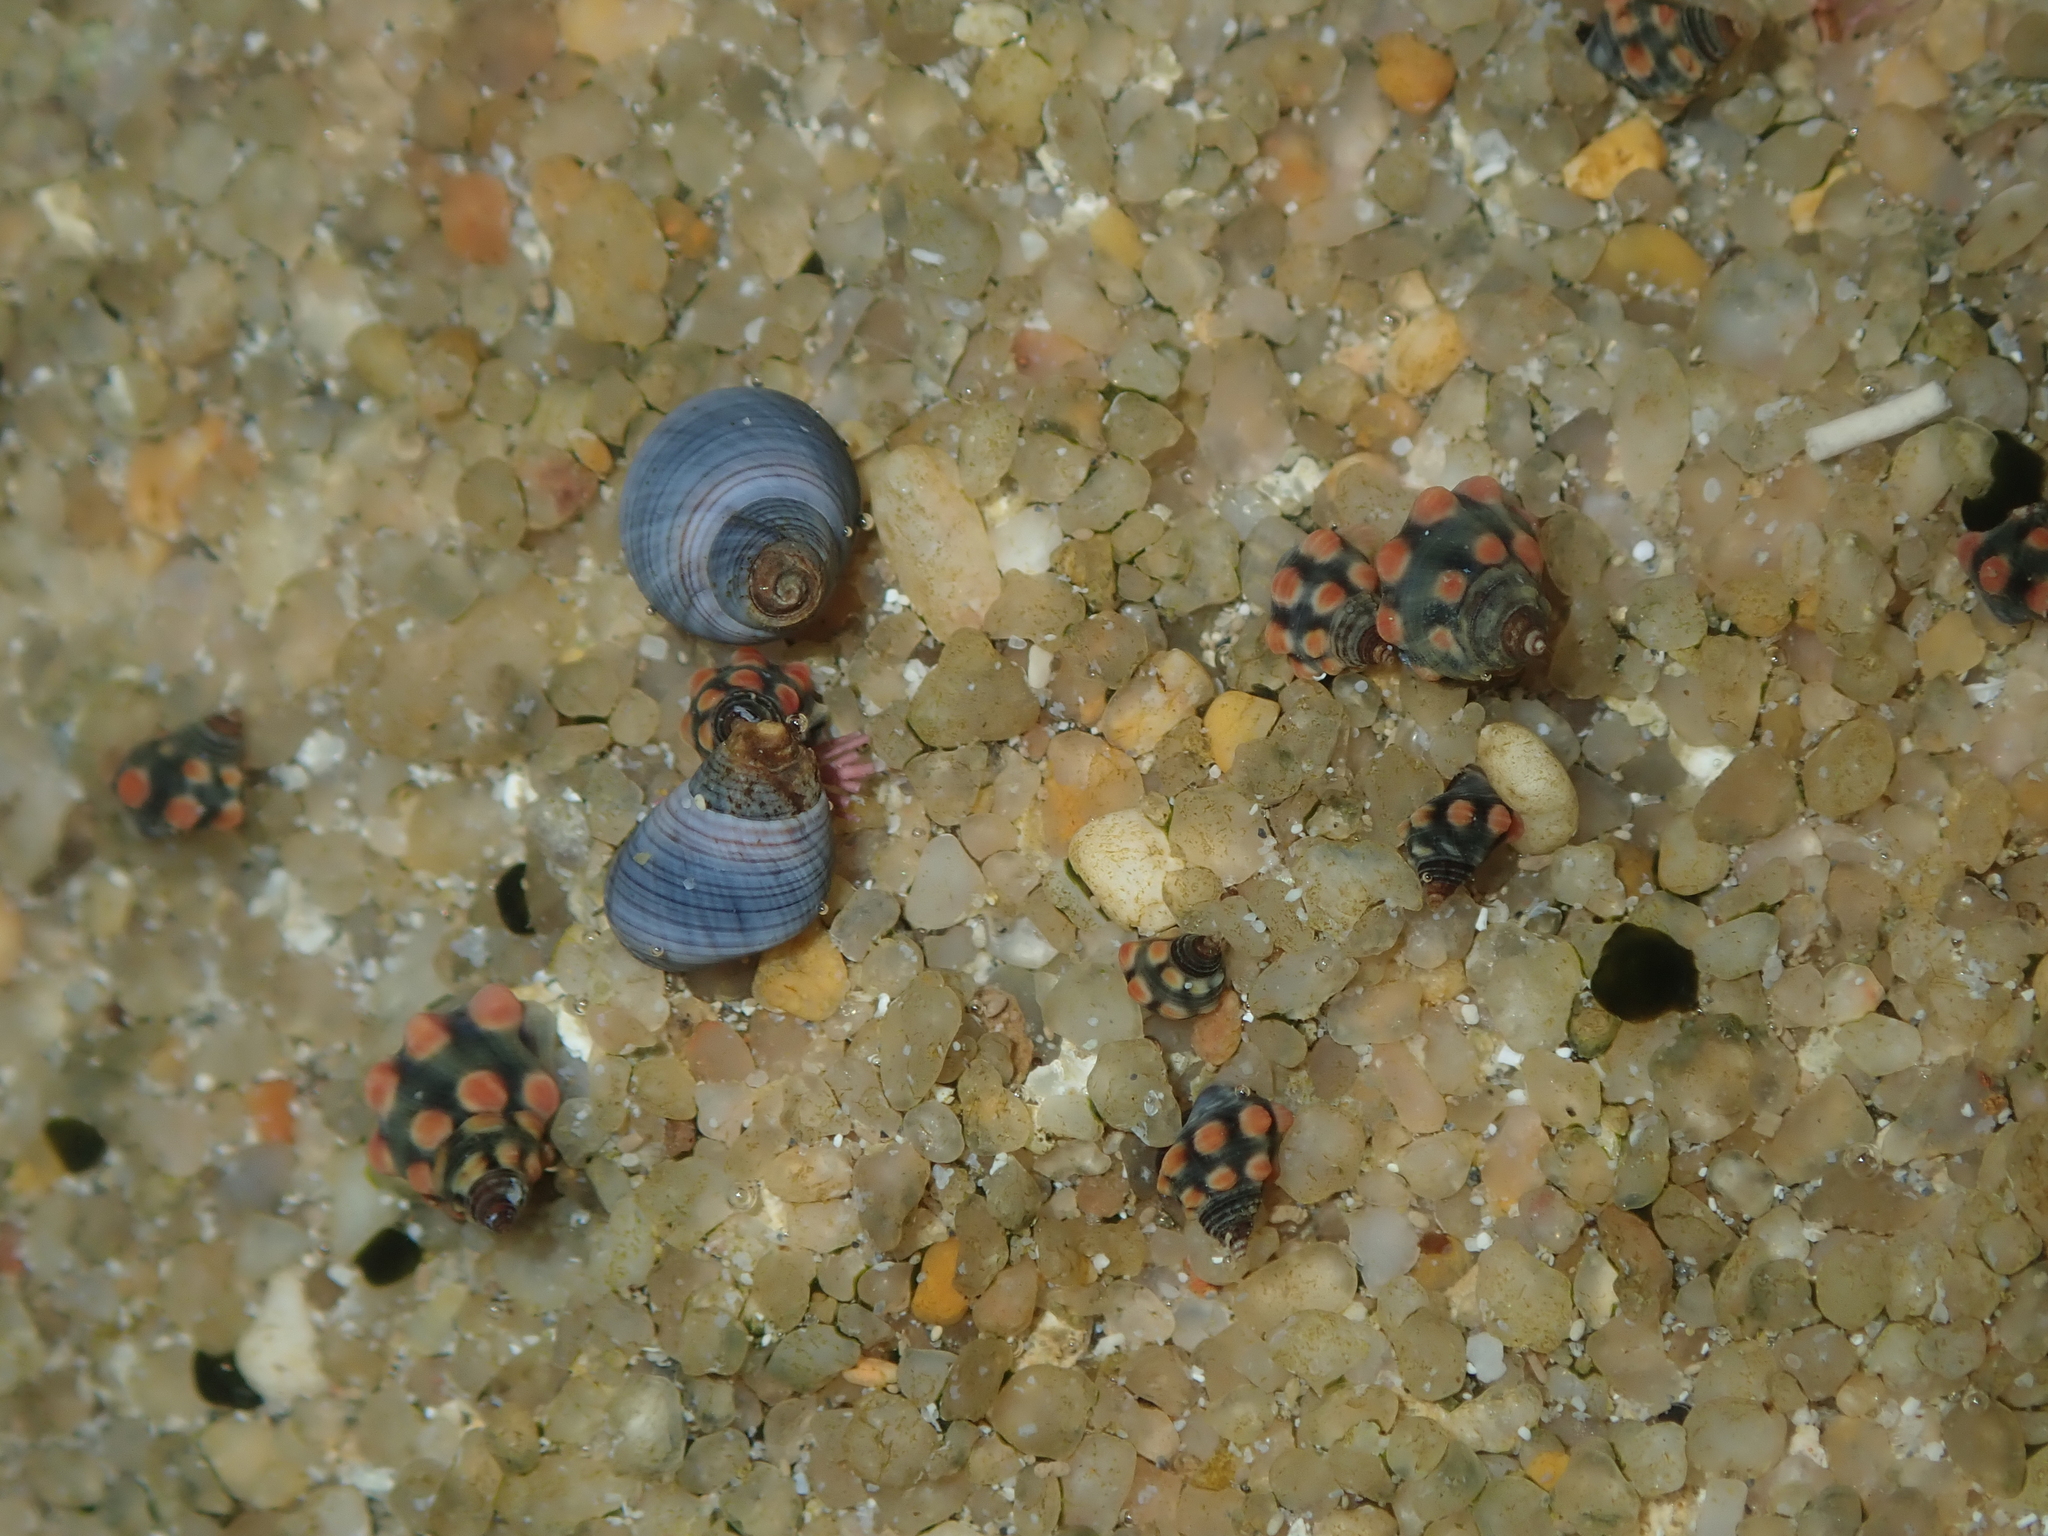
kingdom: Animalia
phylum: Mollusca
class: Gastropoda
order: Littorinimorpha
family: Littorinidae
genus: Echinolittorina
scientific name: Echinolittorina australis
